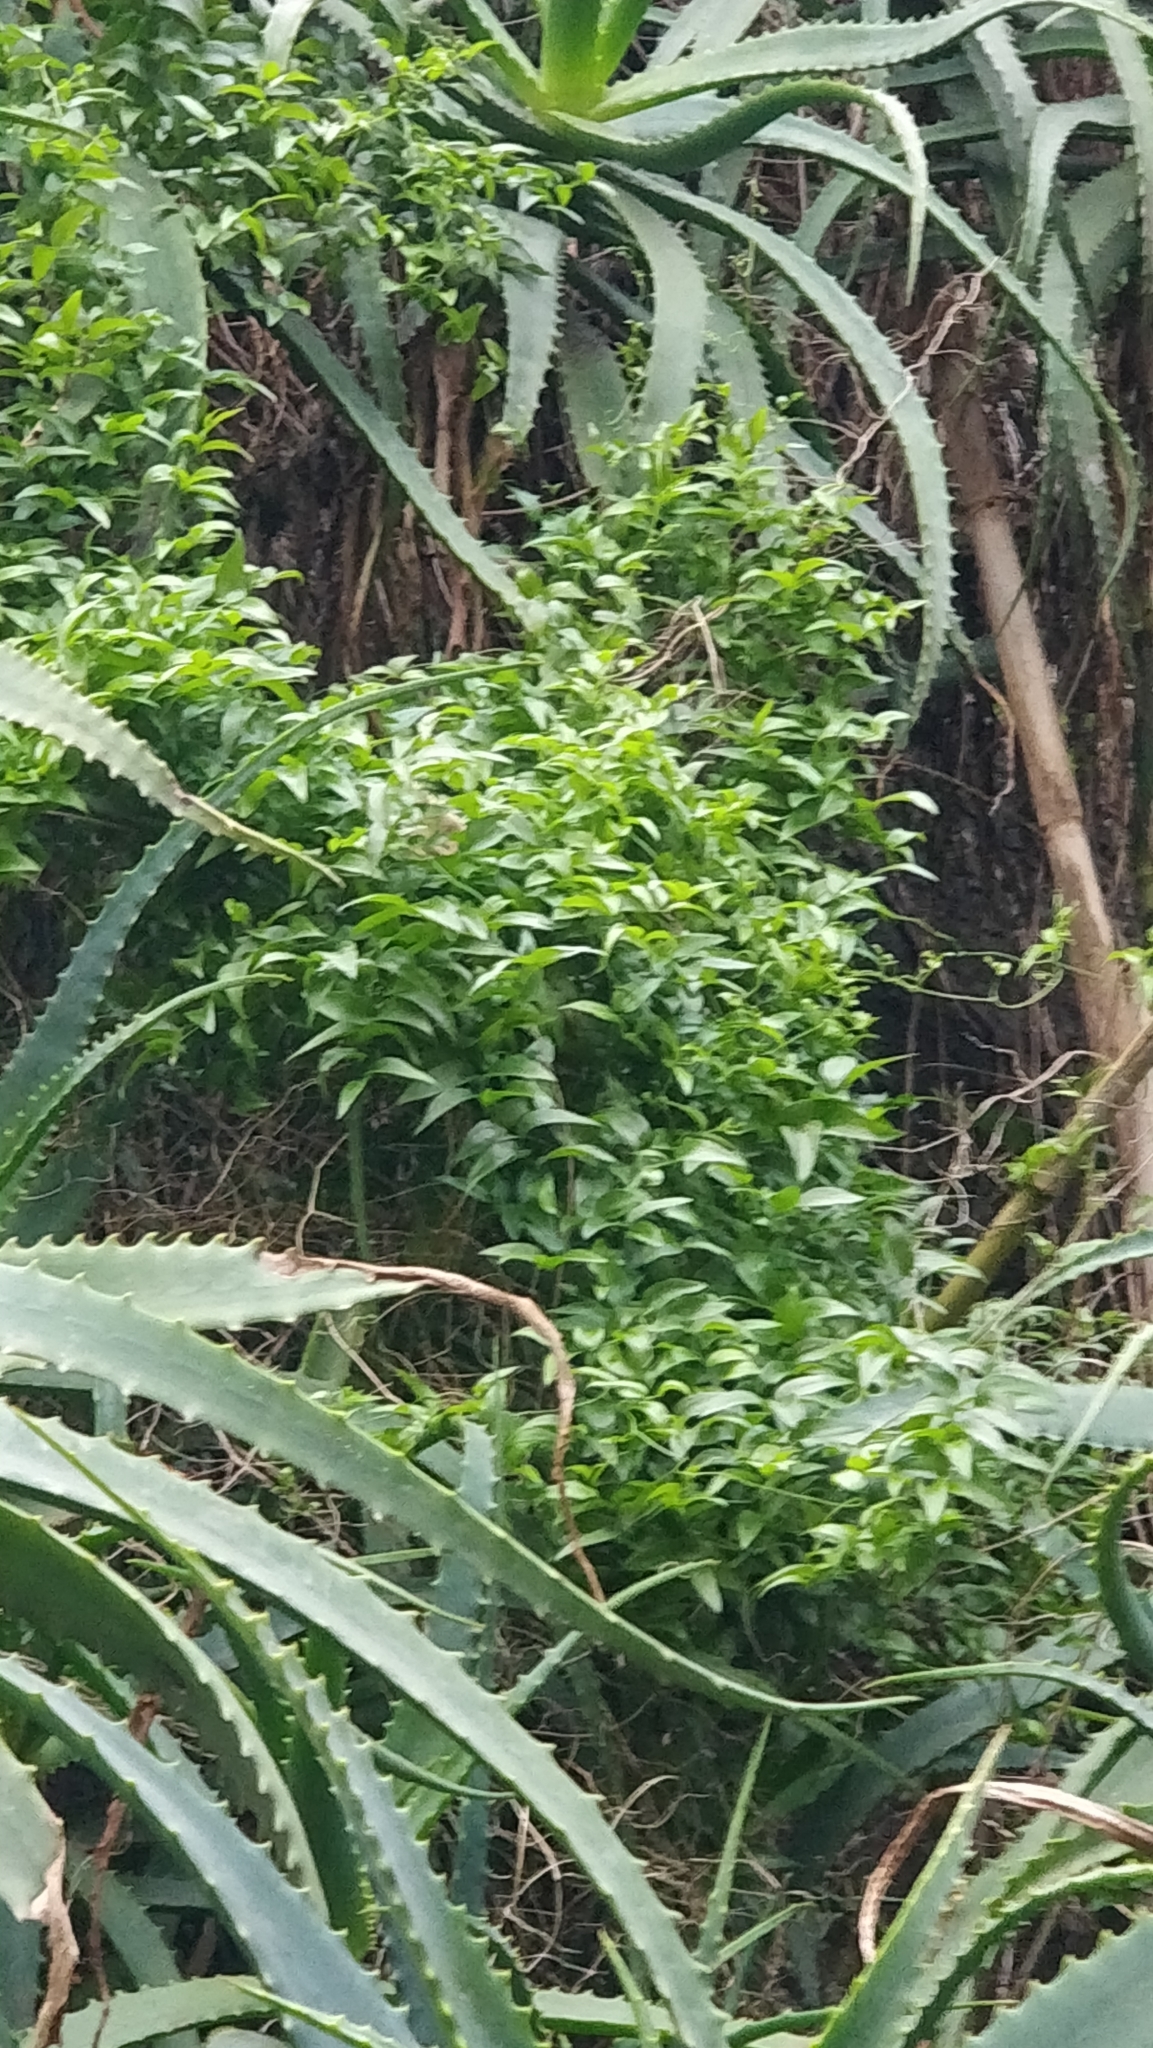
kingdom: Plantae
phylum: Tracheophyta
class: Liliopsida
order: Asparagales
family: Asparagaceae
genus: Asparagus
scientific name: Asparagus asparagoides
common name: African asparagus fern
